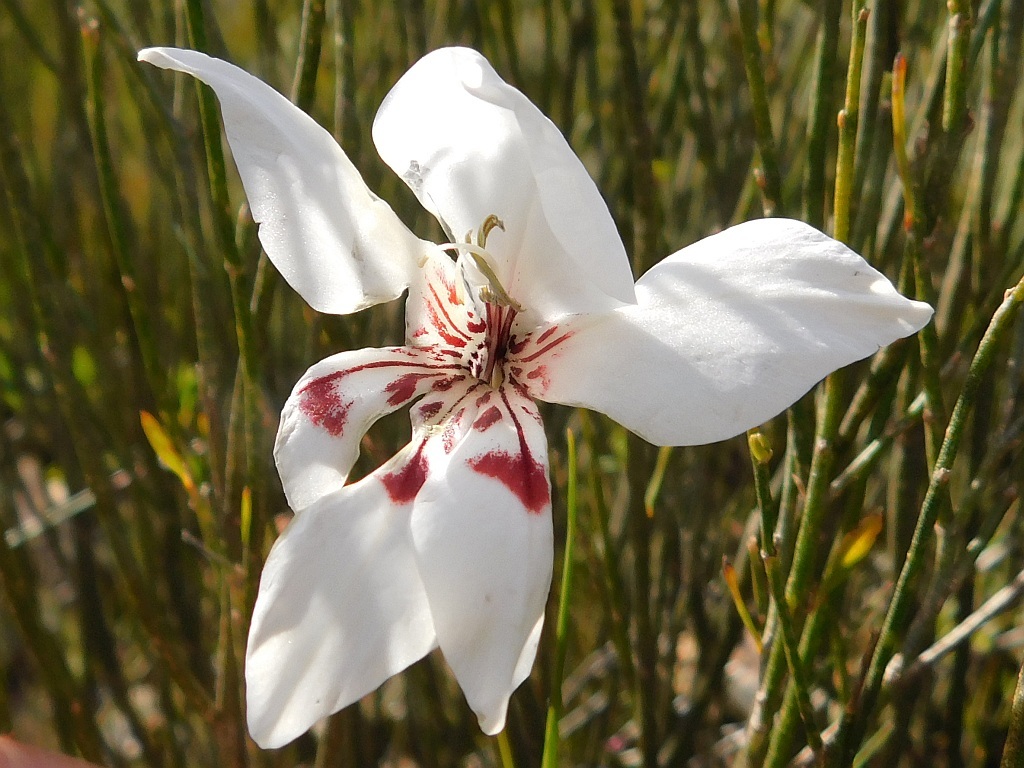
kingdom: Plantae
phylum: Tracheophyta
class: Liliopsida
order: Asparagales
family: Iridaceae
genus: Gladiolus
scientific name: Gladiolus debilis
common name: Painted-lady
